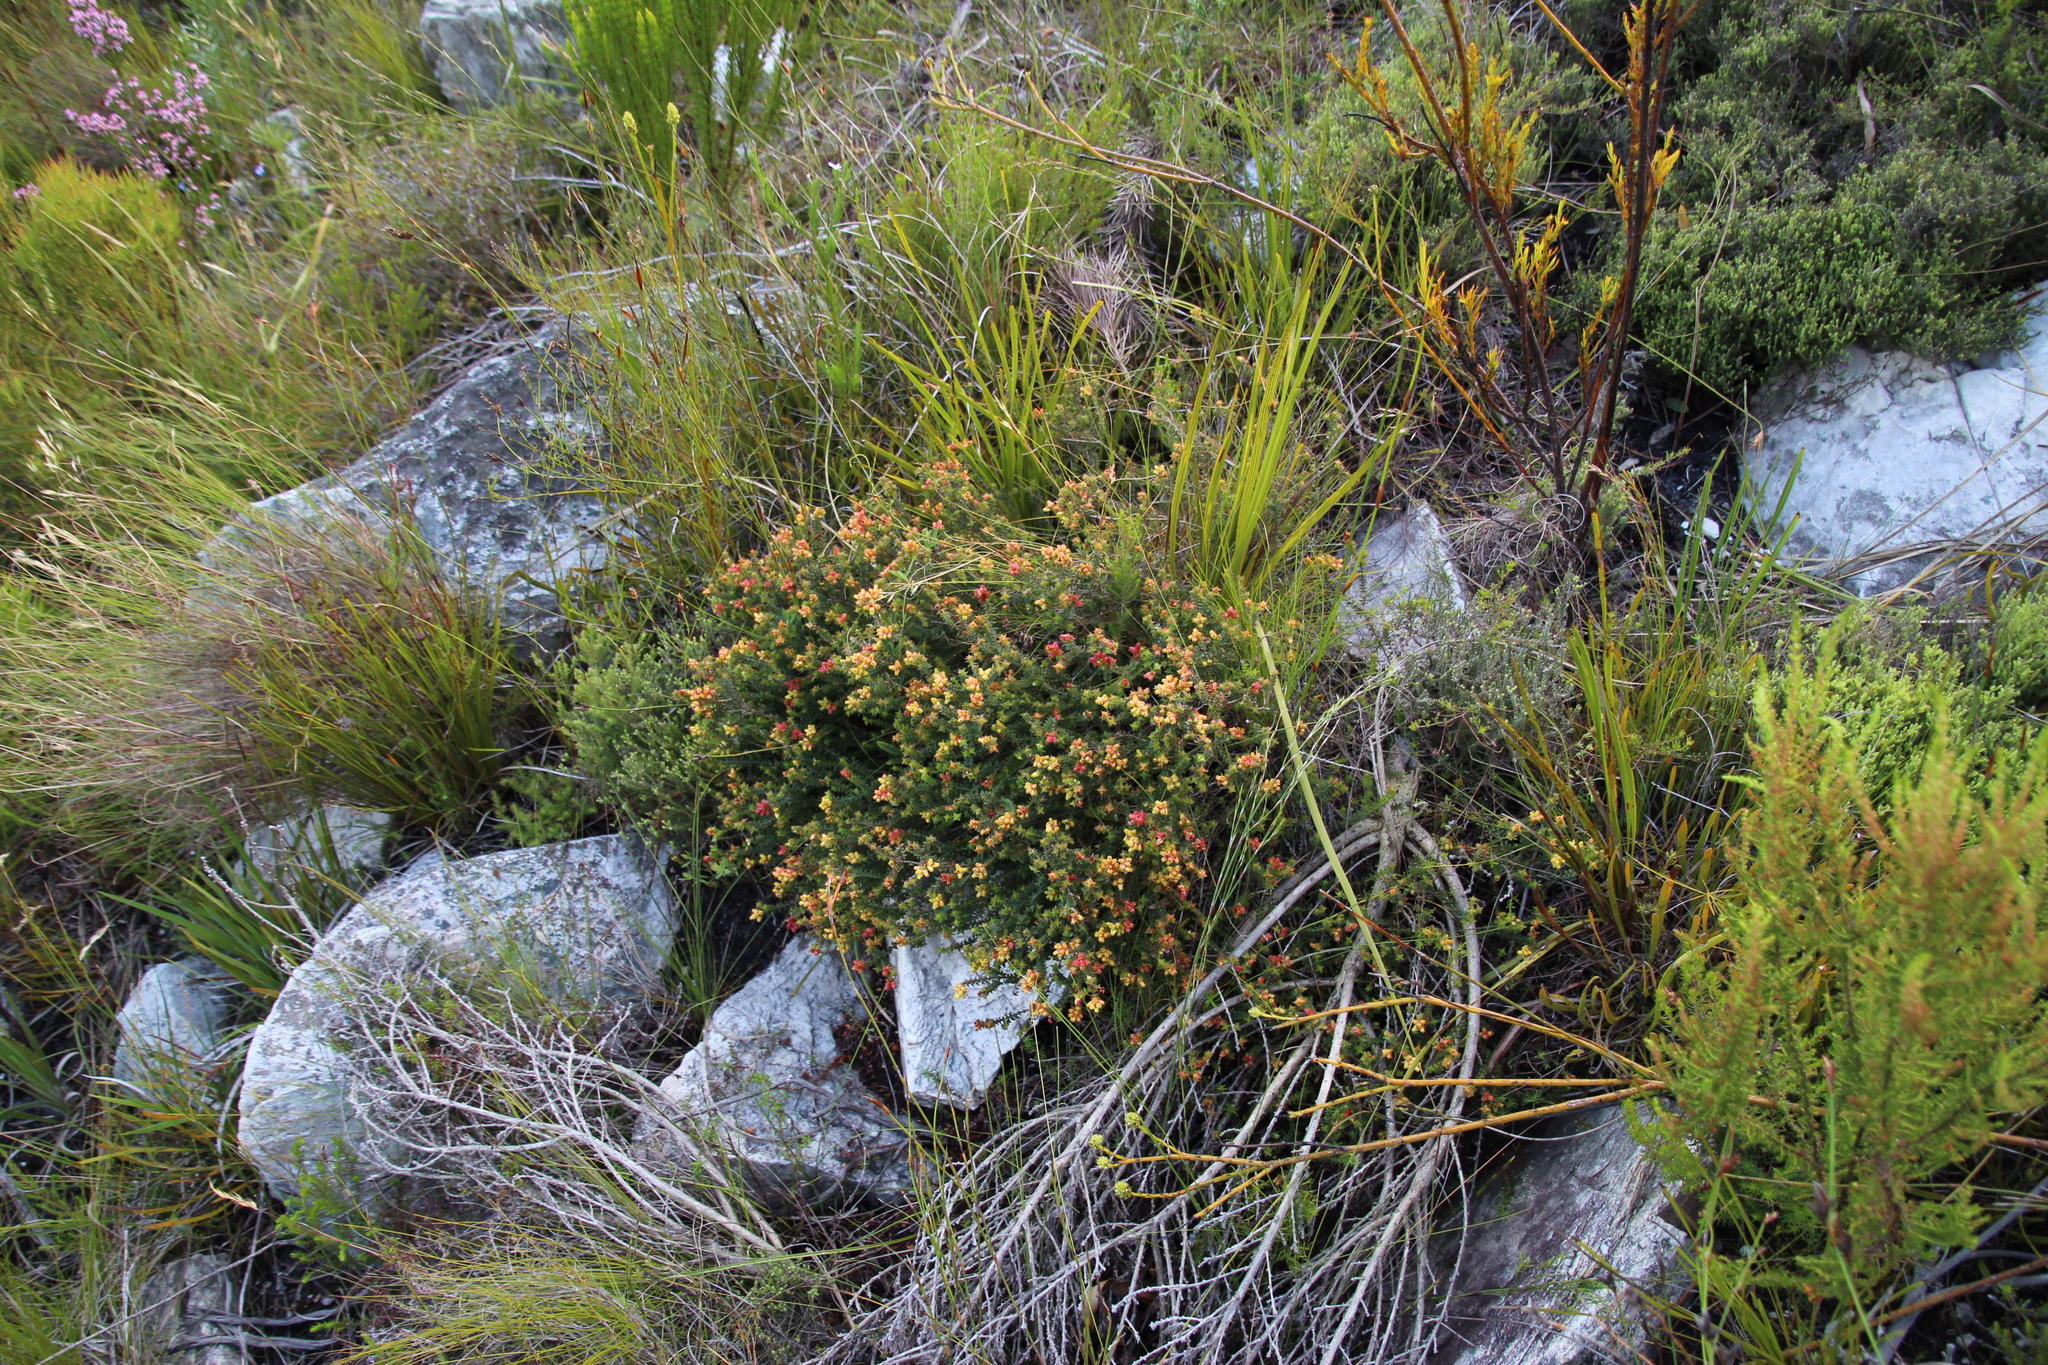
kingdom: Plantae
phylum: Tracheophyta
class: Magnoliopsida
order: Myrtales
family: Penaeaceae
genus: Penaea
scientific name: Penaea mucronata
